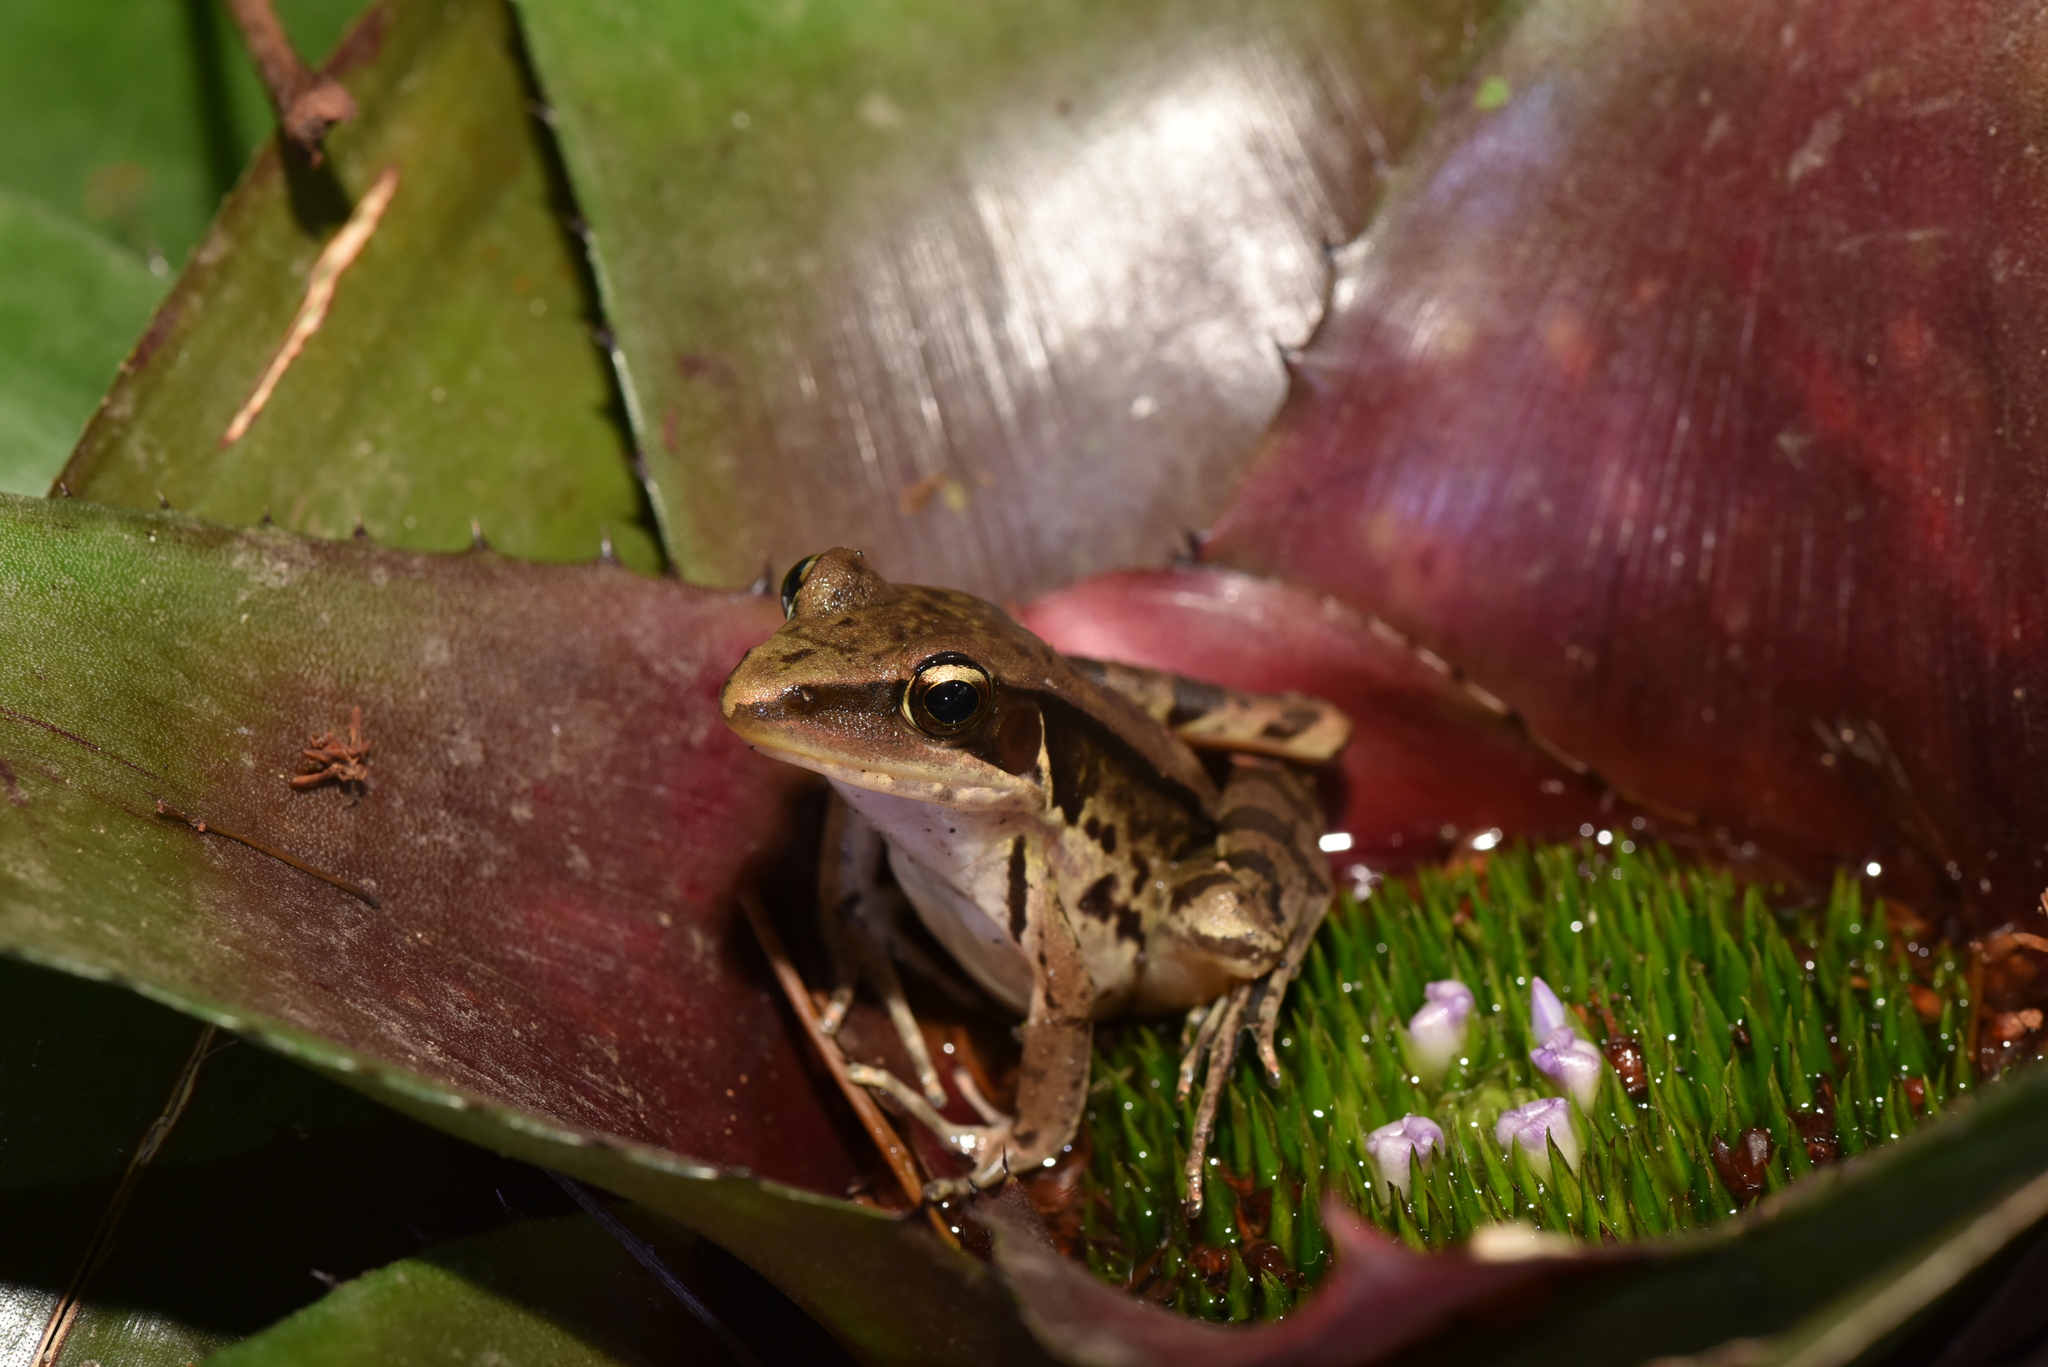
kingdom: Animalia
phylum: Chordata
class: Amphibia
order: Anura
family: Ranidae
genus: Sylvirana
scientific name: Sylvirana guentheri
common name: Guenther's amoy frog
